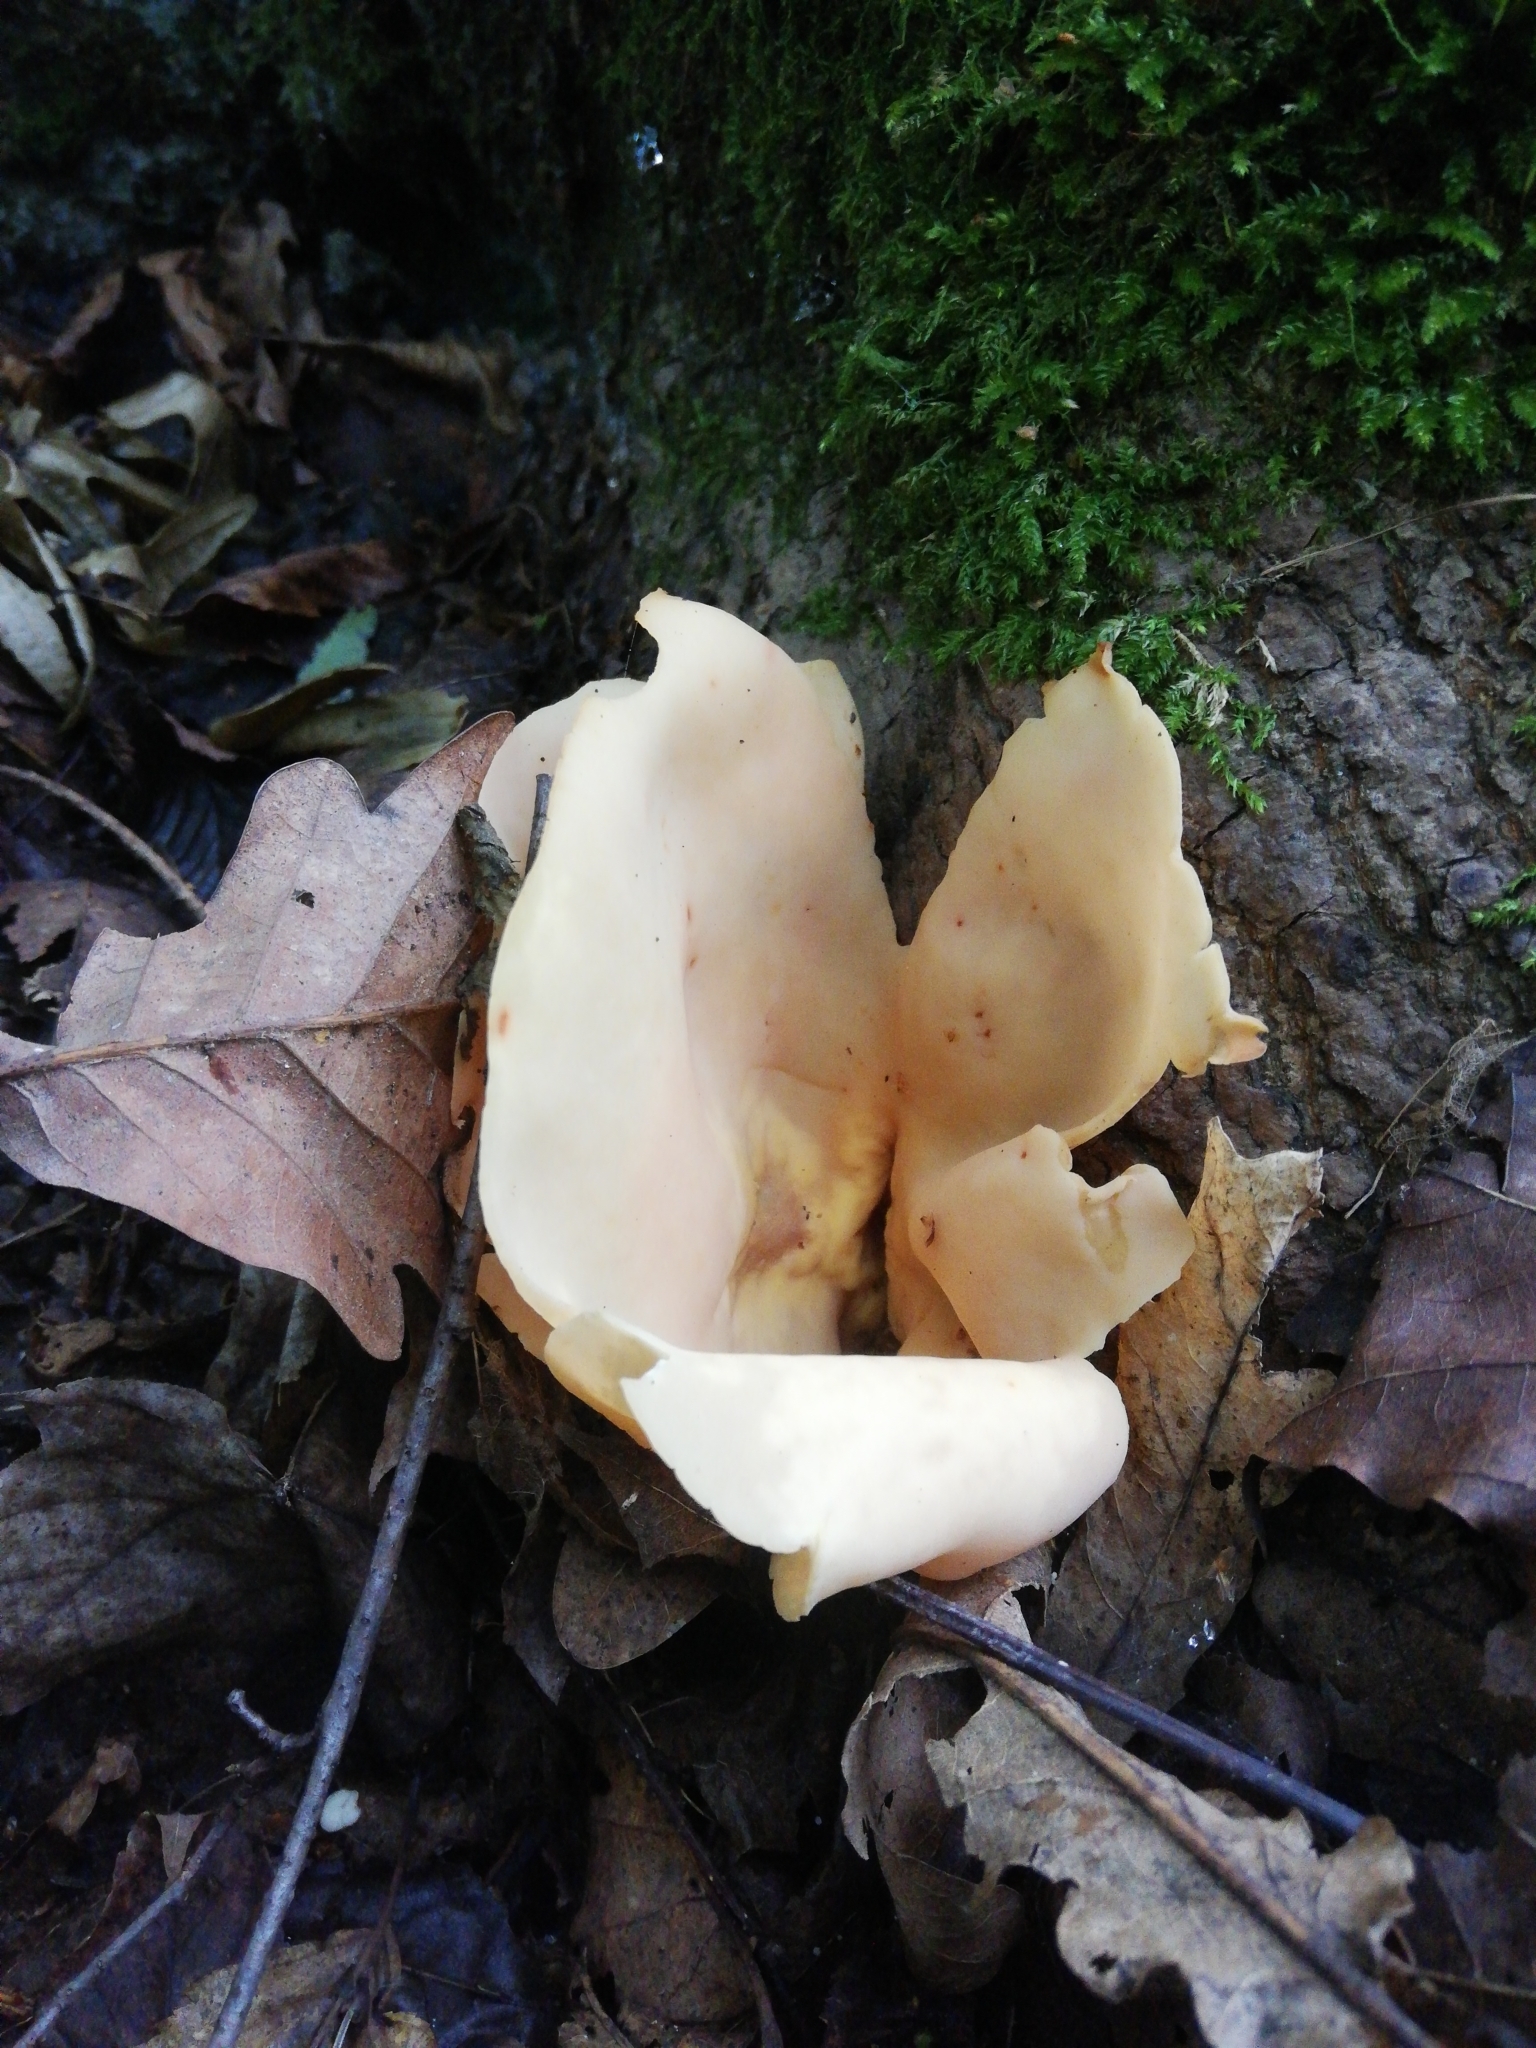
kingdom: Fungi
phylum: Ascomycota
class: Pezizomycetes
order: Pezizales
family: Otideaceae
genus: Otidea
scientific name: Otidea onotica
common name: Hare's ear
